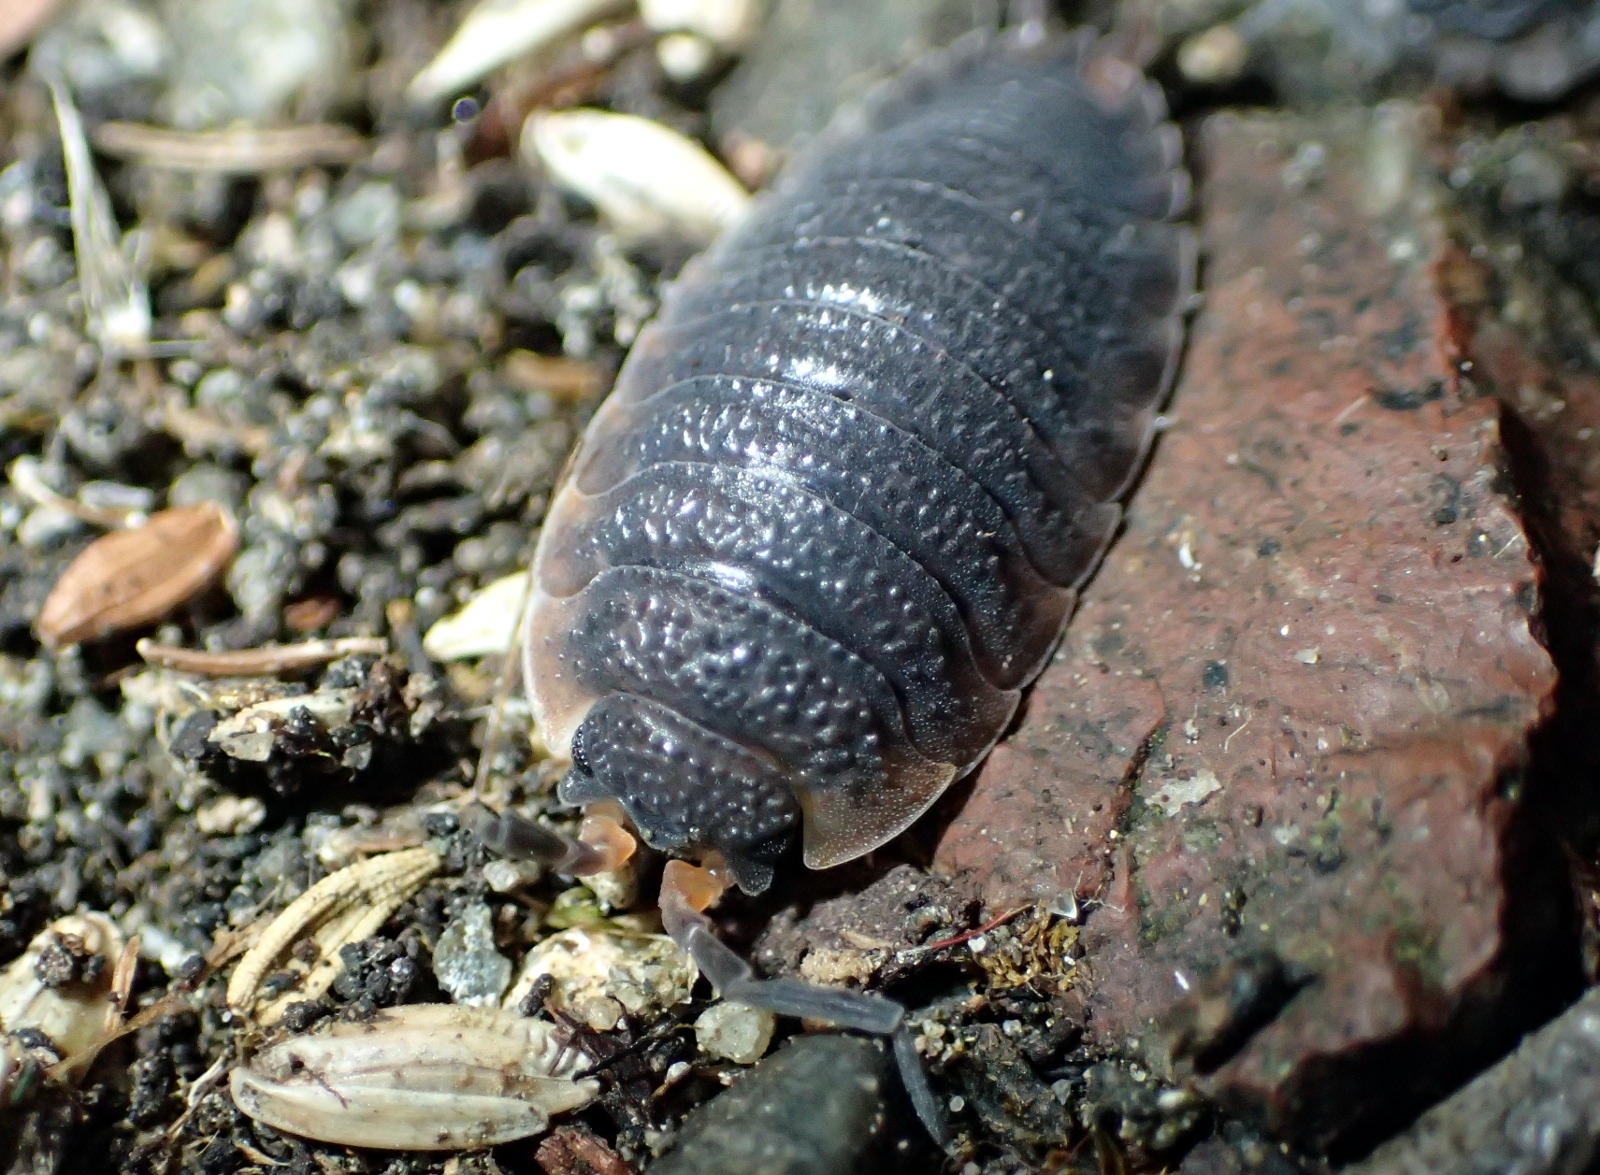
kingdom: Animalia
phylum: Arthropoda
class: Malacostraca
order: Isopoda
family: Porcellionidae
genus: Porcellio
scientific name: Porcellio scaber
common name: Common rough woodlouse
